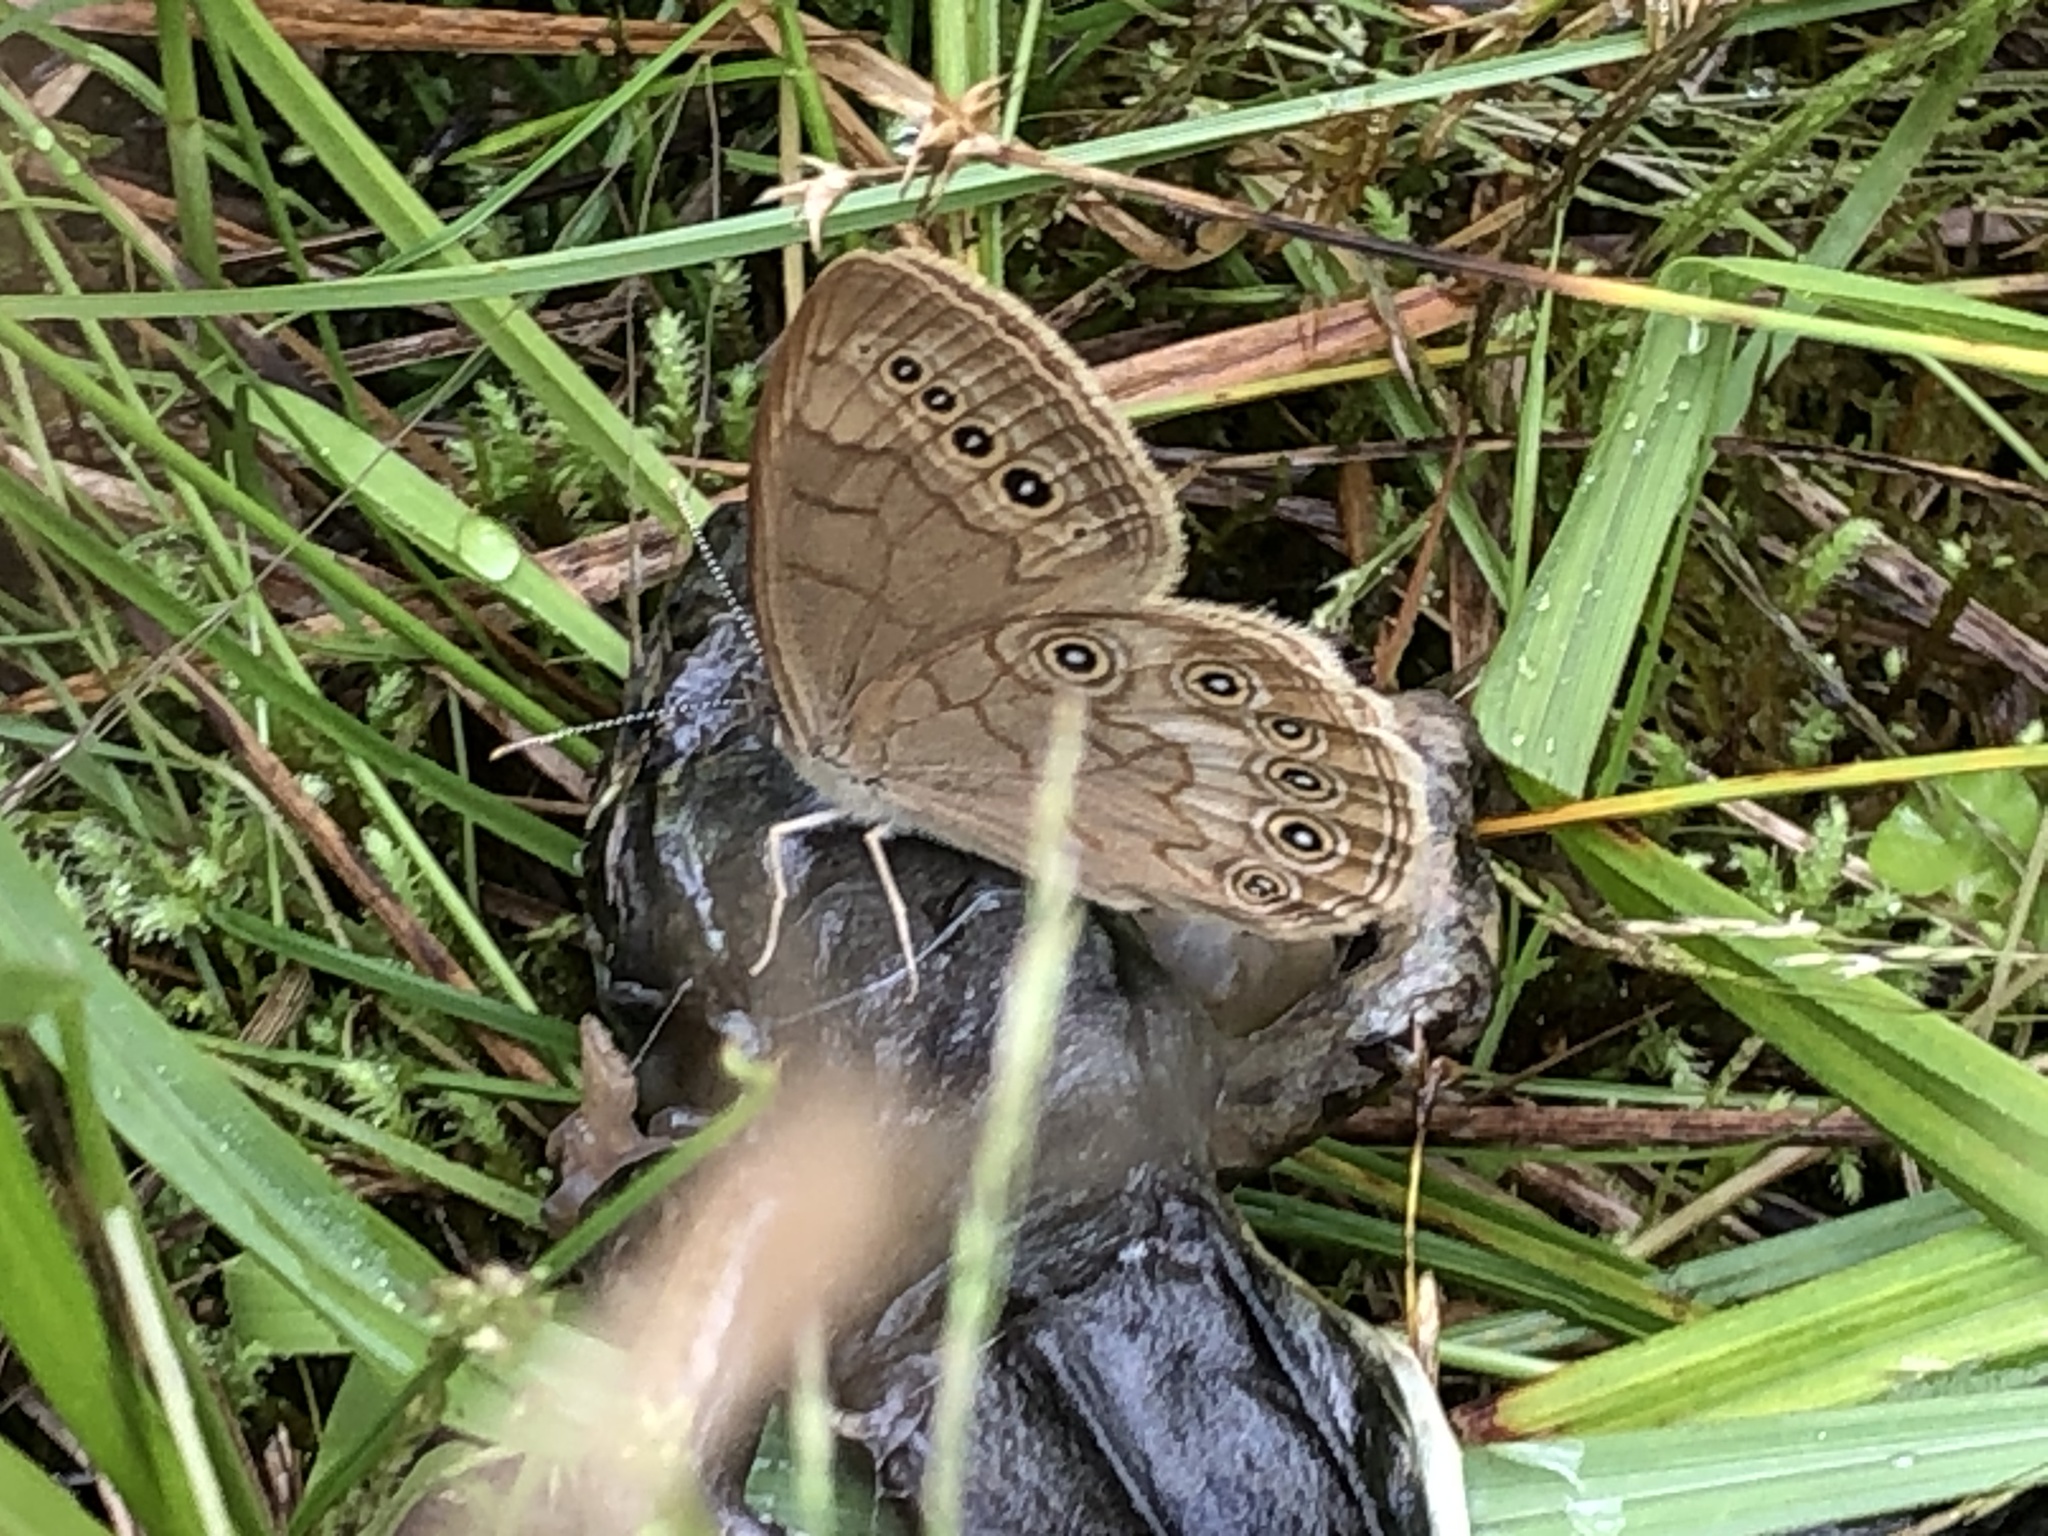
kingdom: Animalia
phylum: Arthropoda
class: Insecta
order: Lepidoptera
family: Nymphalidae
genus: Lethe
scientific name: Lethe eurydice
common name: Eyed brown
